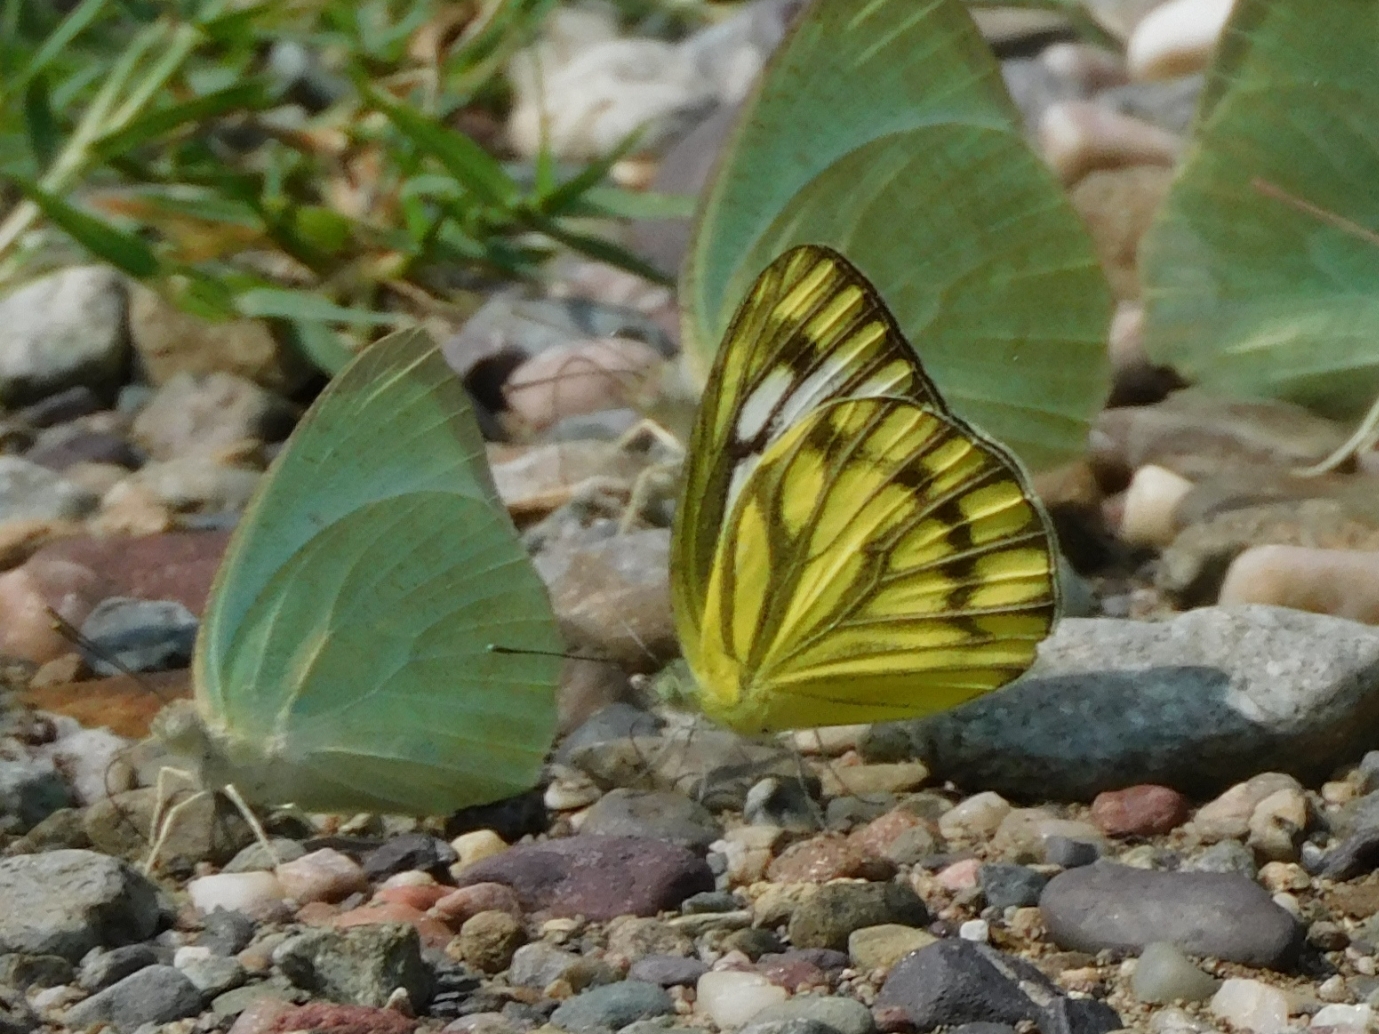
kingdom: Animalia
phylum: Arthropoda
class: Insecta
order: Lepidoptera
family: Pieridae
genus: Cepora
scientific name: Cepora nerissa
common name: Common gull
